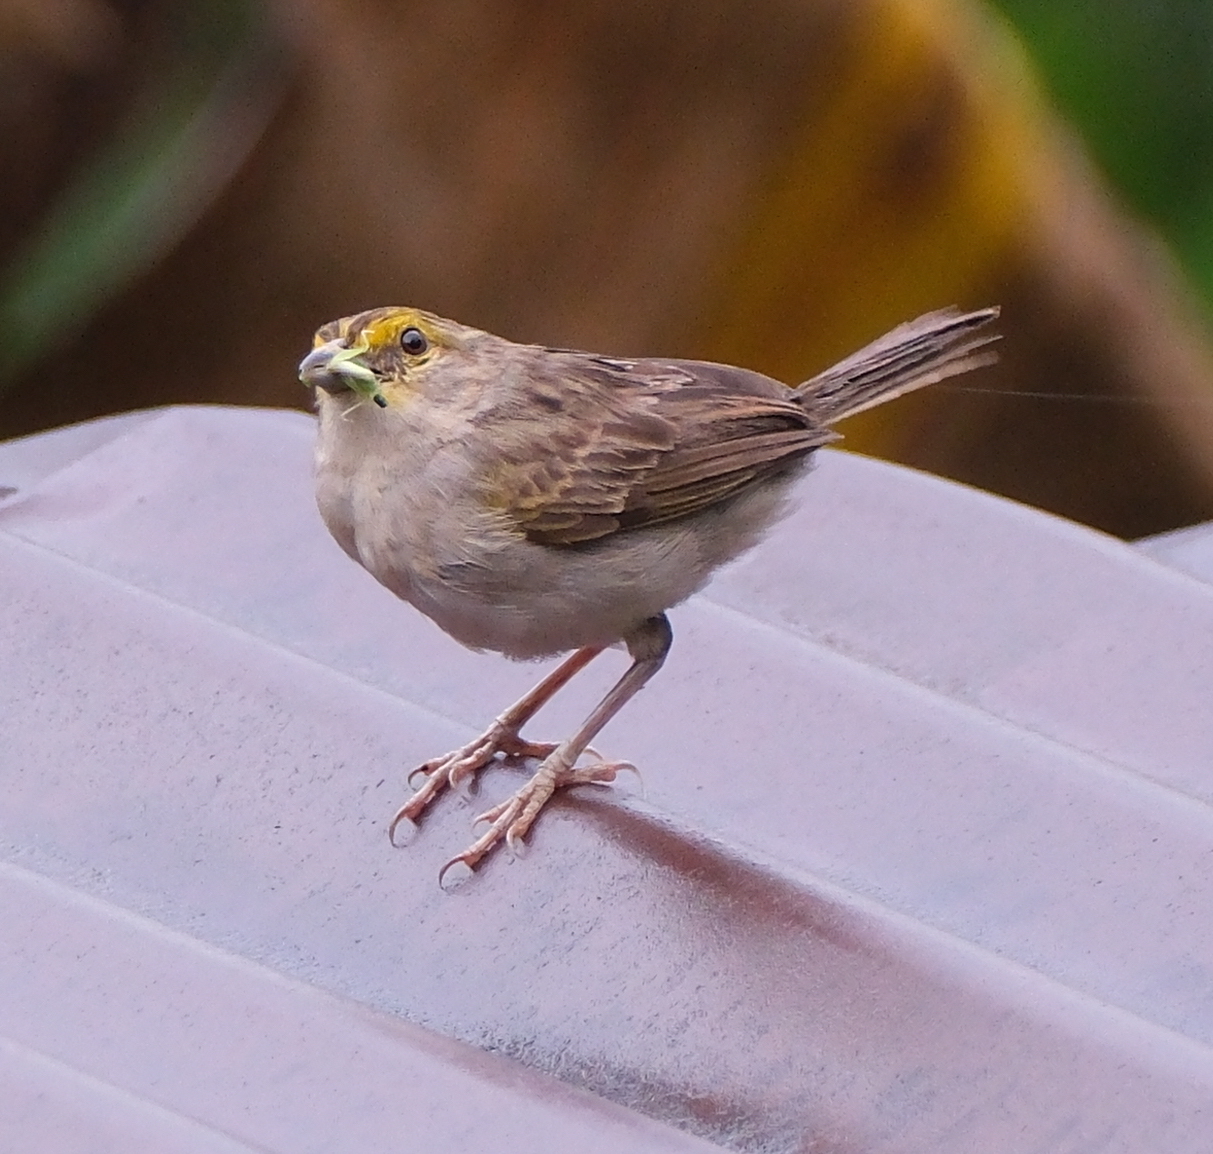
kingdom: Animalia
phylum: Chordata
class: Aves
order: Passeriformes
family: Passerellidae
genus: Ammodramus
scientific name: Ammodramus aurifrons
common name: Yellow-browed sparrow
